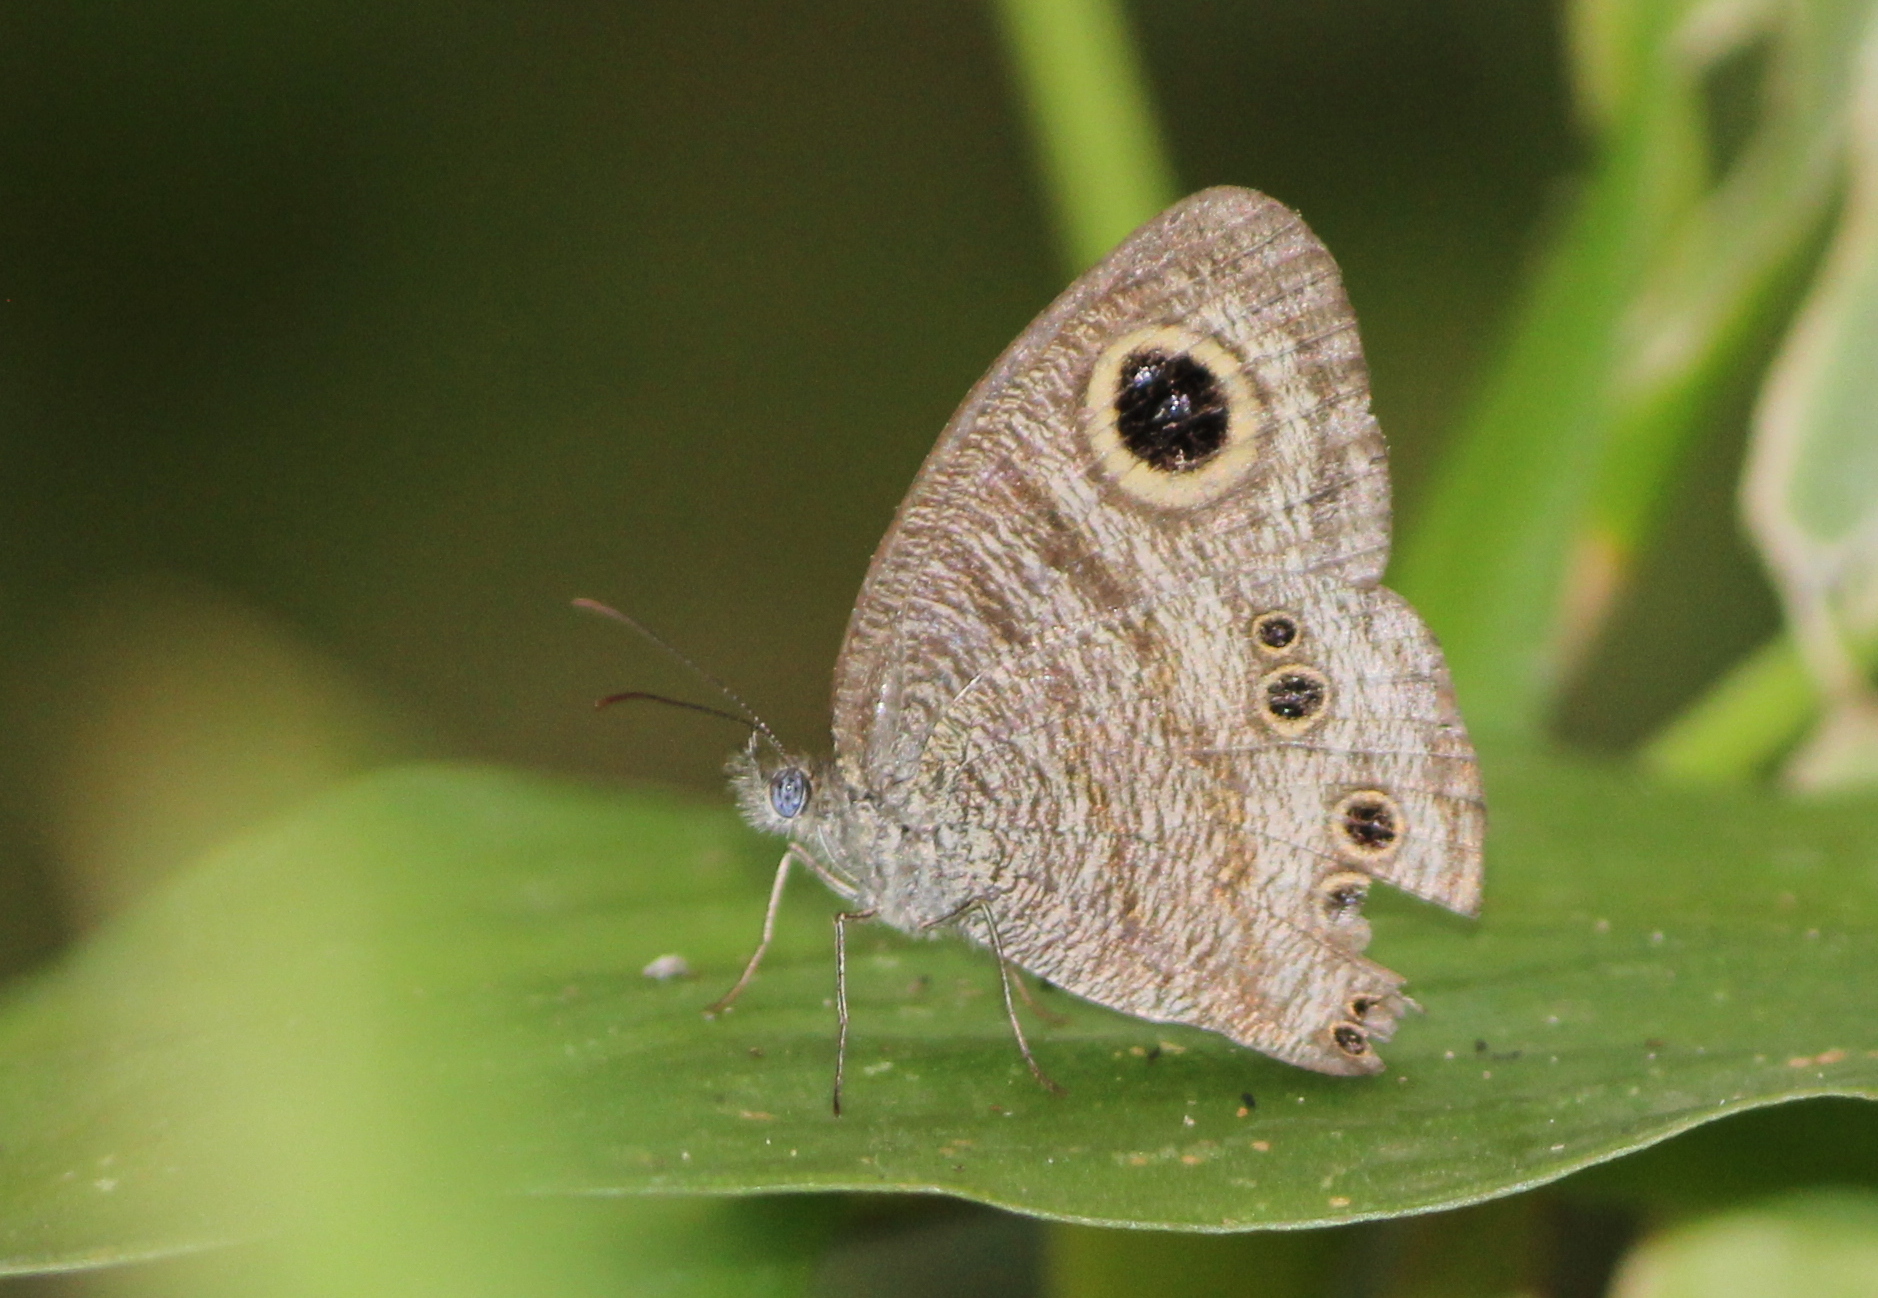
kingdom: Animalia
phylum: Arthropoda
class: Insecta
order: Lepidoptera
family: Nymphalidae
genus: Ypthima
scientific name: Ypthima baldus
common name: Common five-ring
